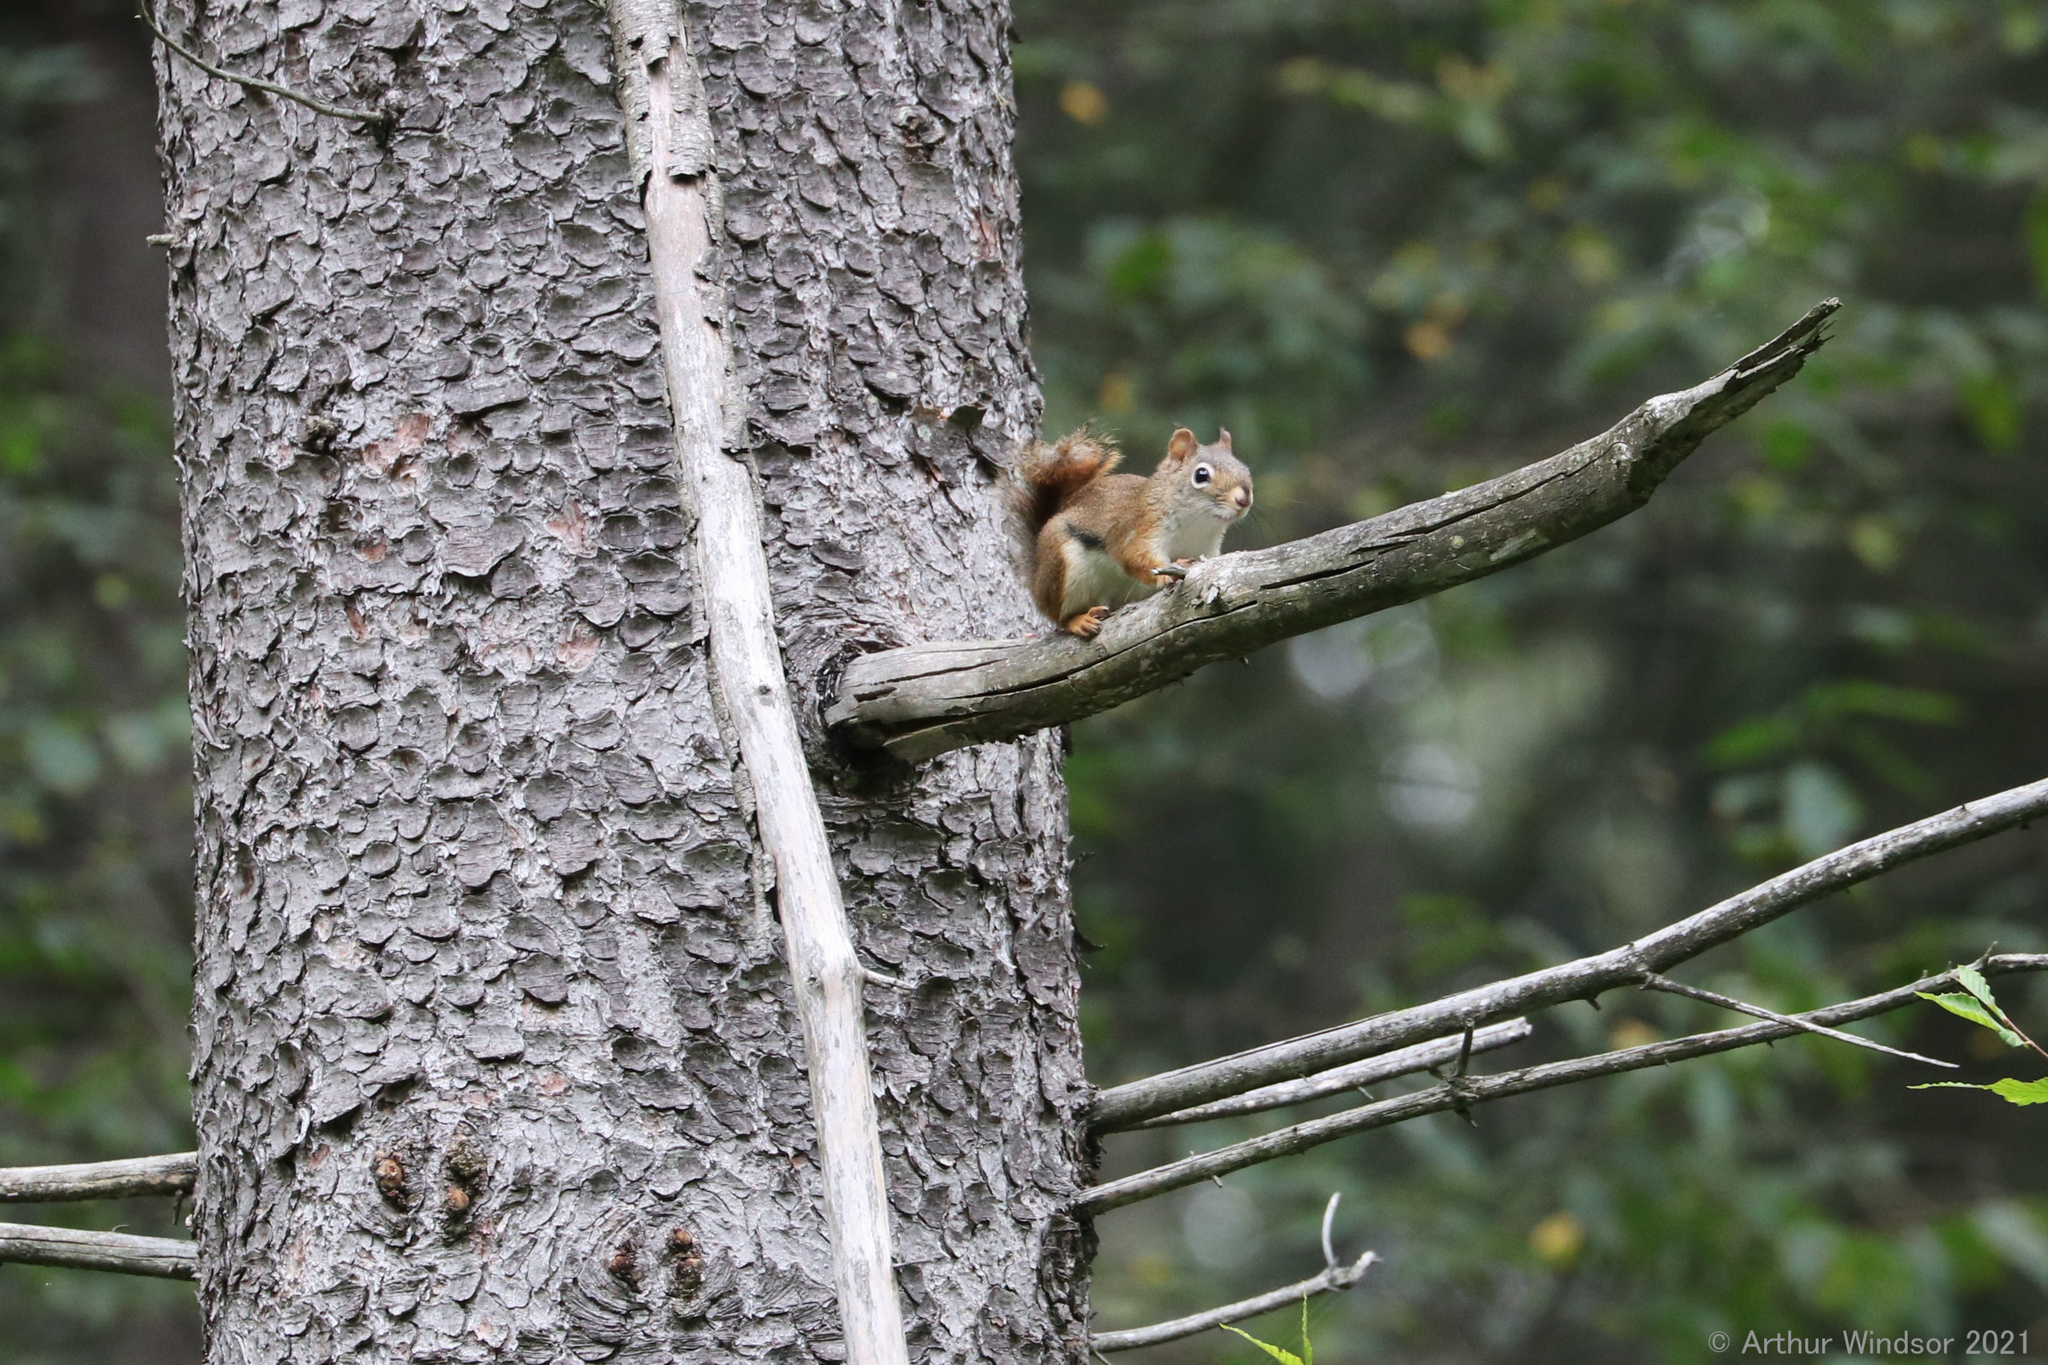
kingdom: Animalia
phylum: Chordata
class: Mammalia
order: Rodentia
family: Sciuridae
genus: Tamiasciurus
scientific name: Tamiasciurus hudsonicus
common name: Red squirrel
